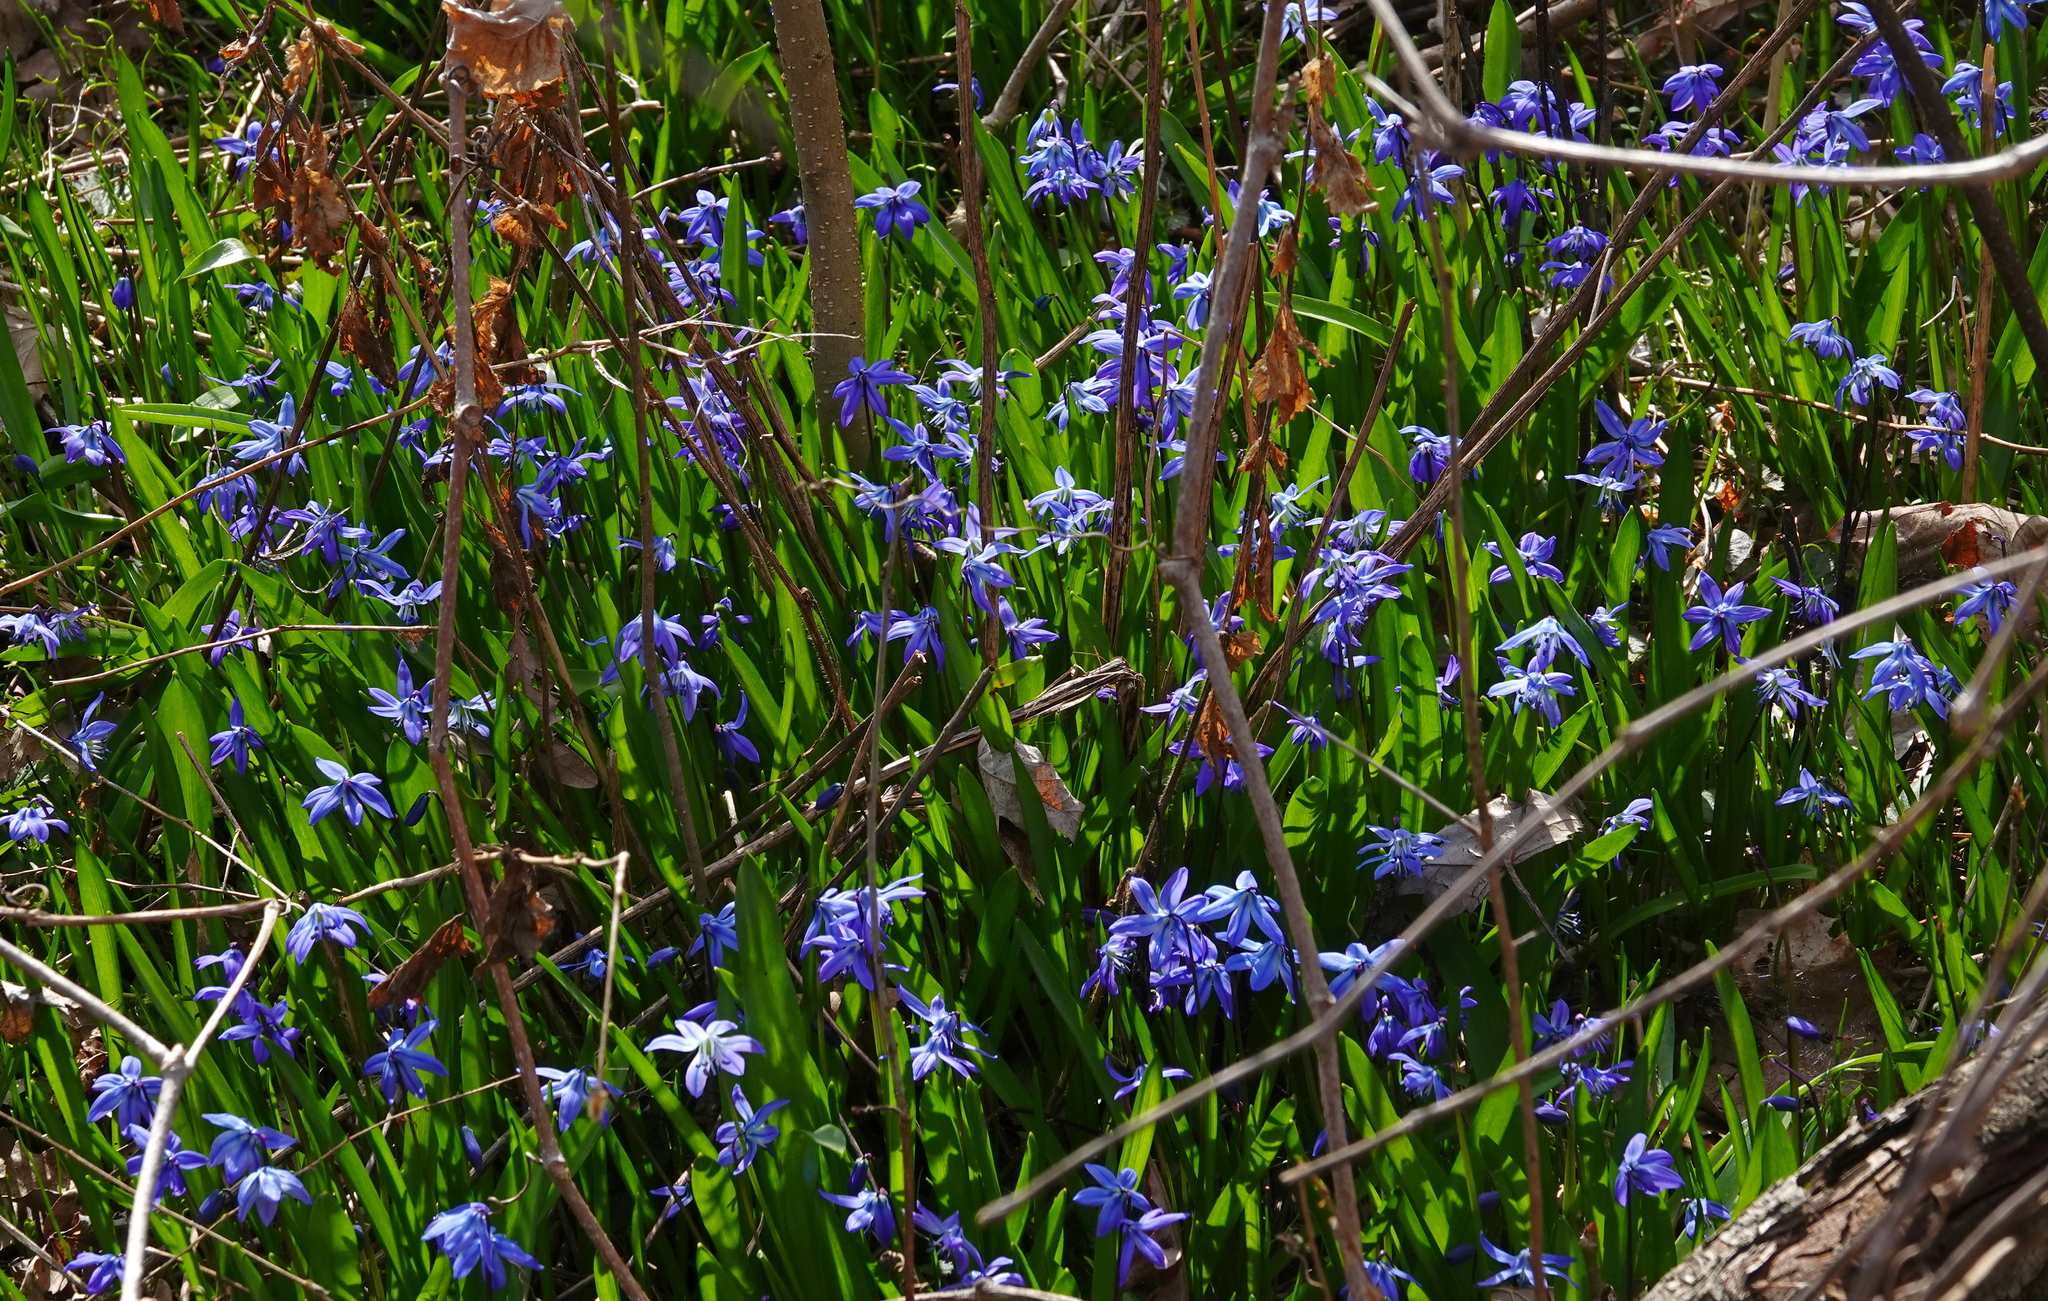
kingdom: Plantae
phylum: Tracheophyta
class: Liliopsida
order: Asparagales
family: Asparagaceae
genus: Scilla
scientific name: Scilla siberica
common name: Siberian squill
